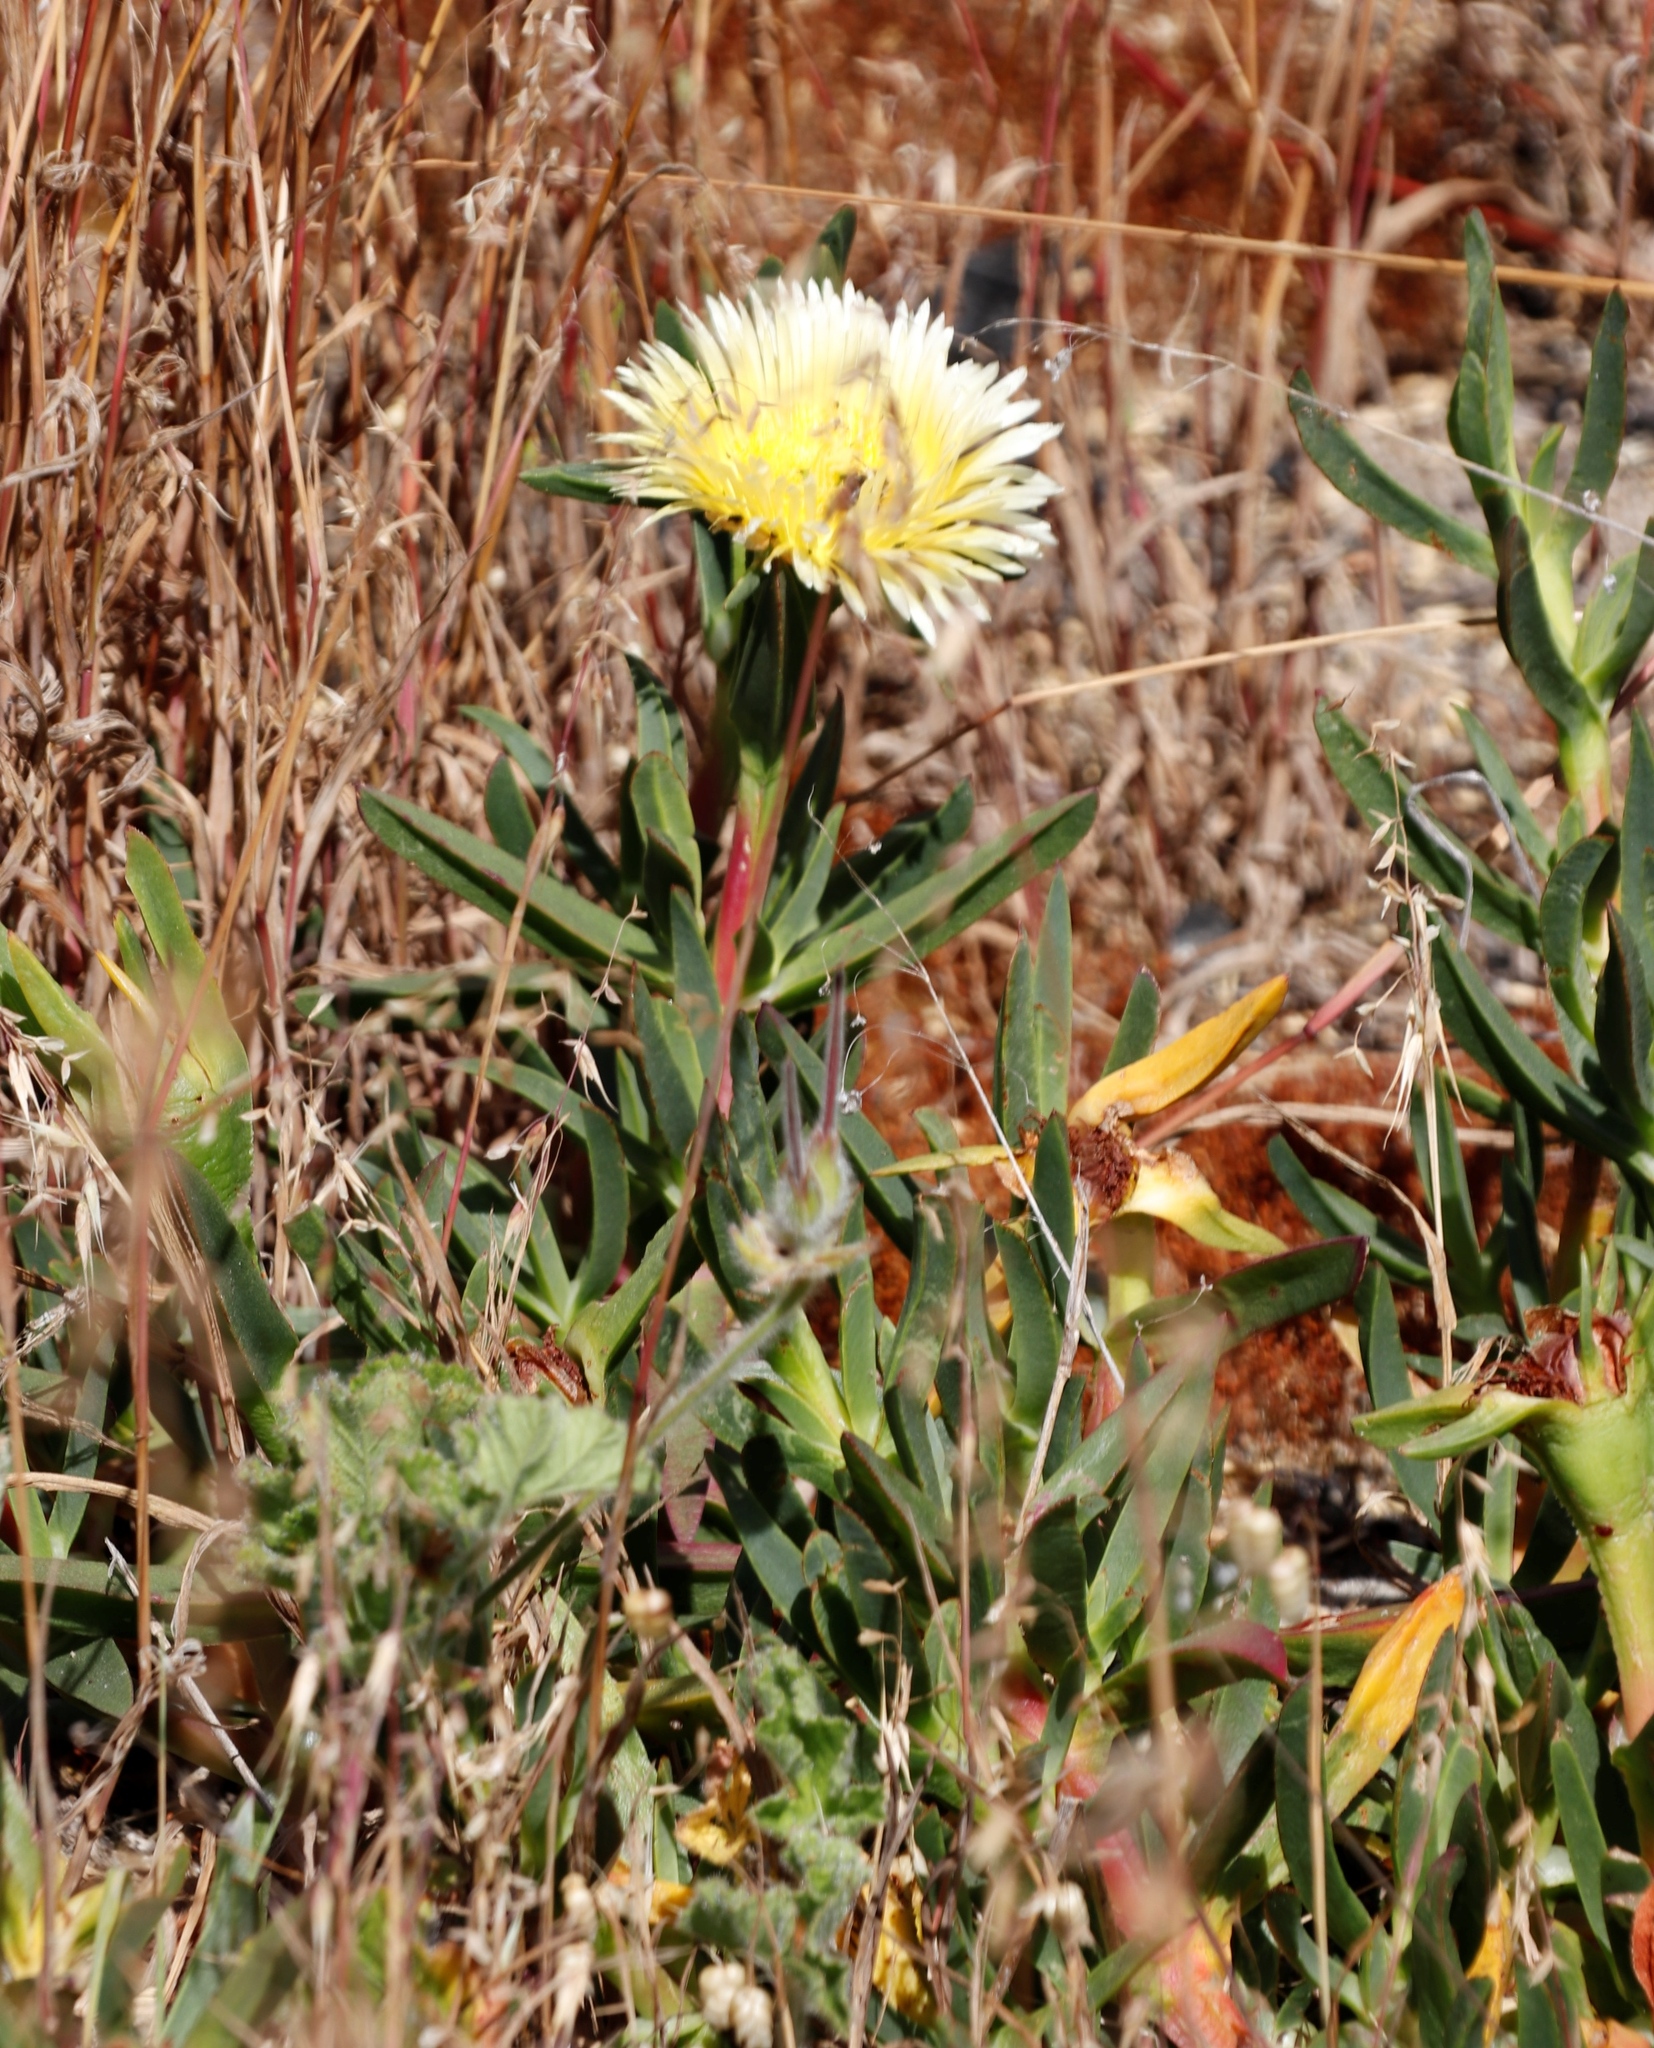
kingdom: Plantae
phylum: Tracheophyta
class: Magnoliopsida
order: Caryophyllales
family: Aizoaceae
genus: Carpobrotus
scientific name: Carpobrotus edulis
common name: Hottentot-fig
